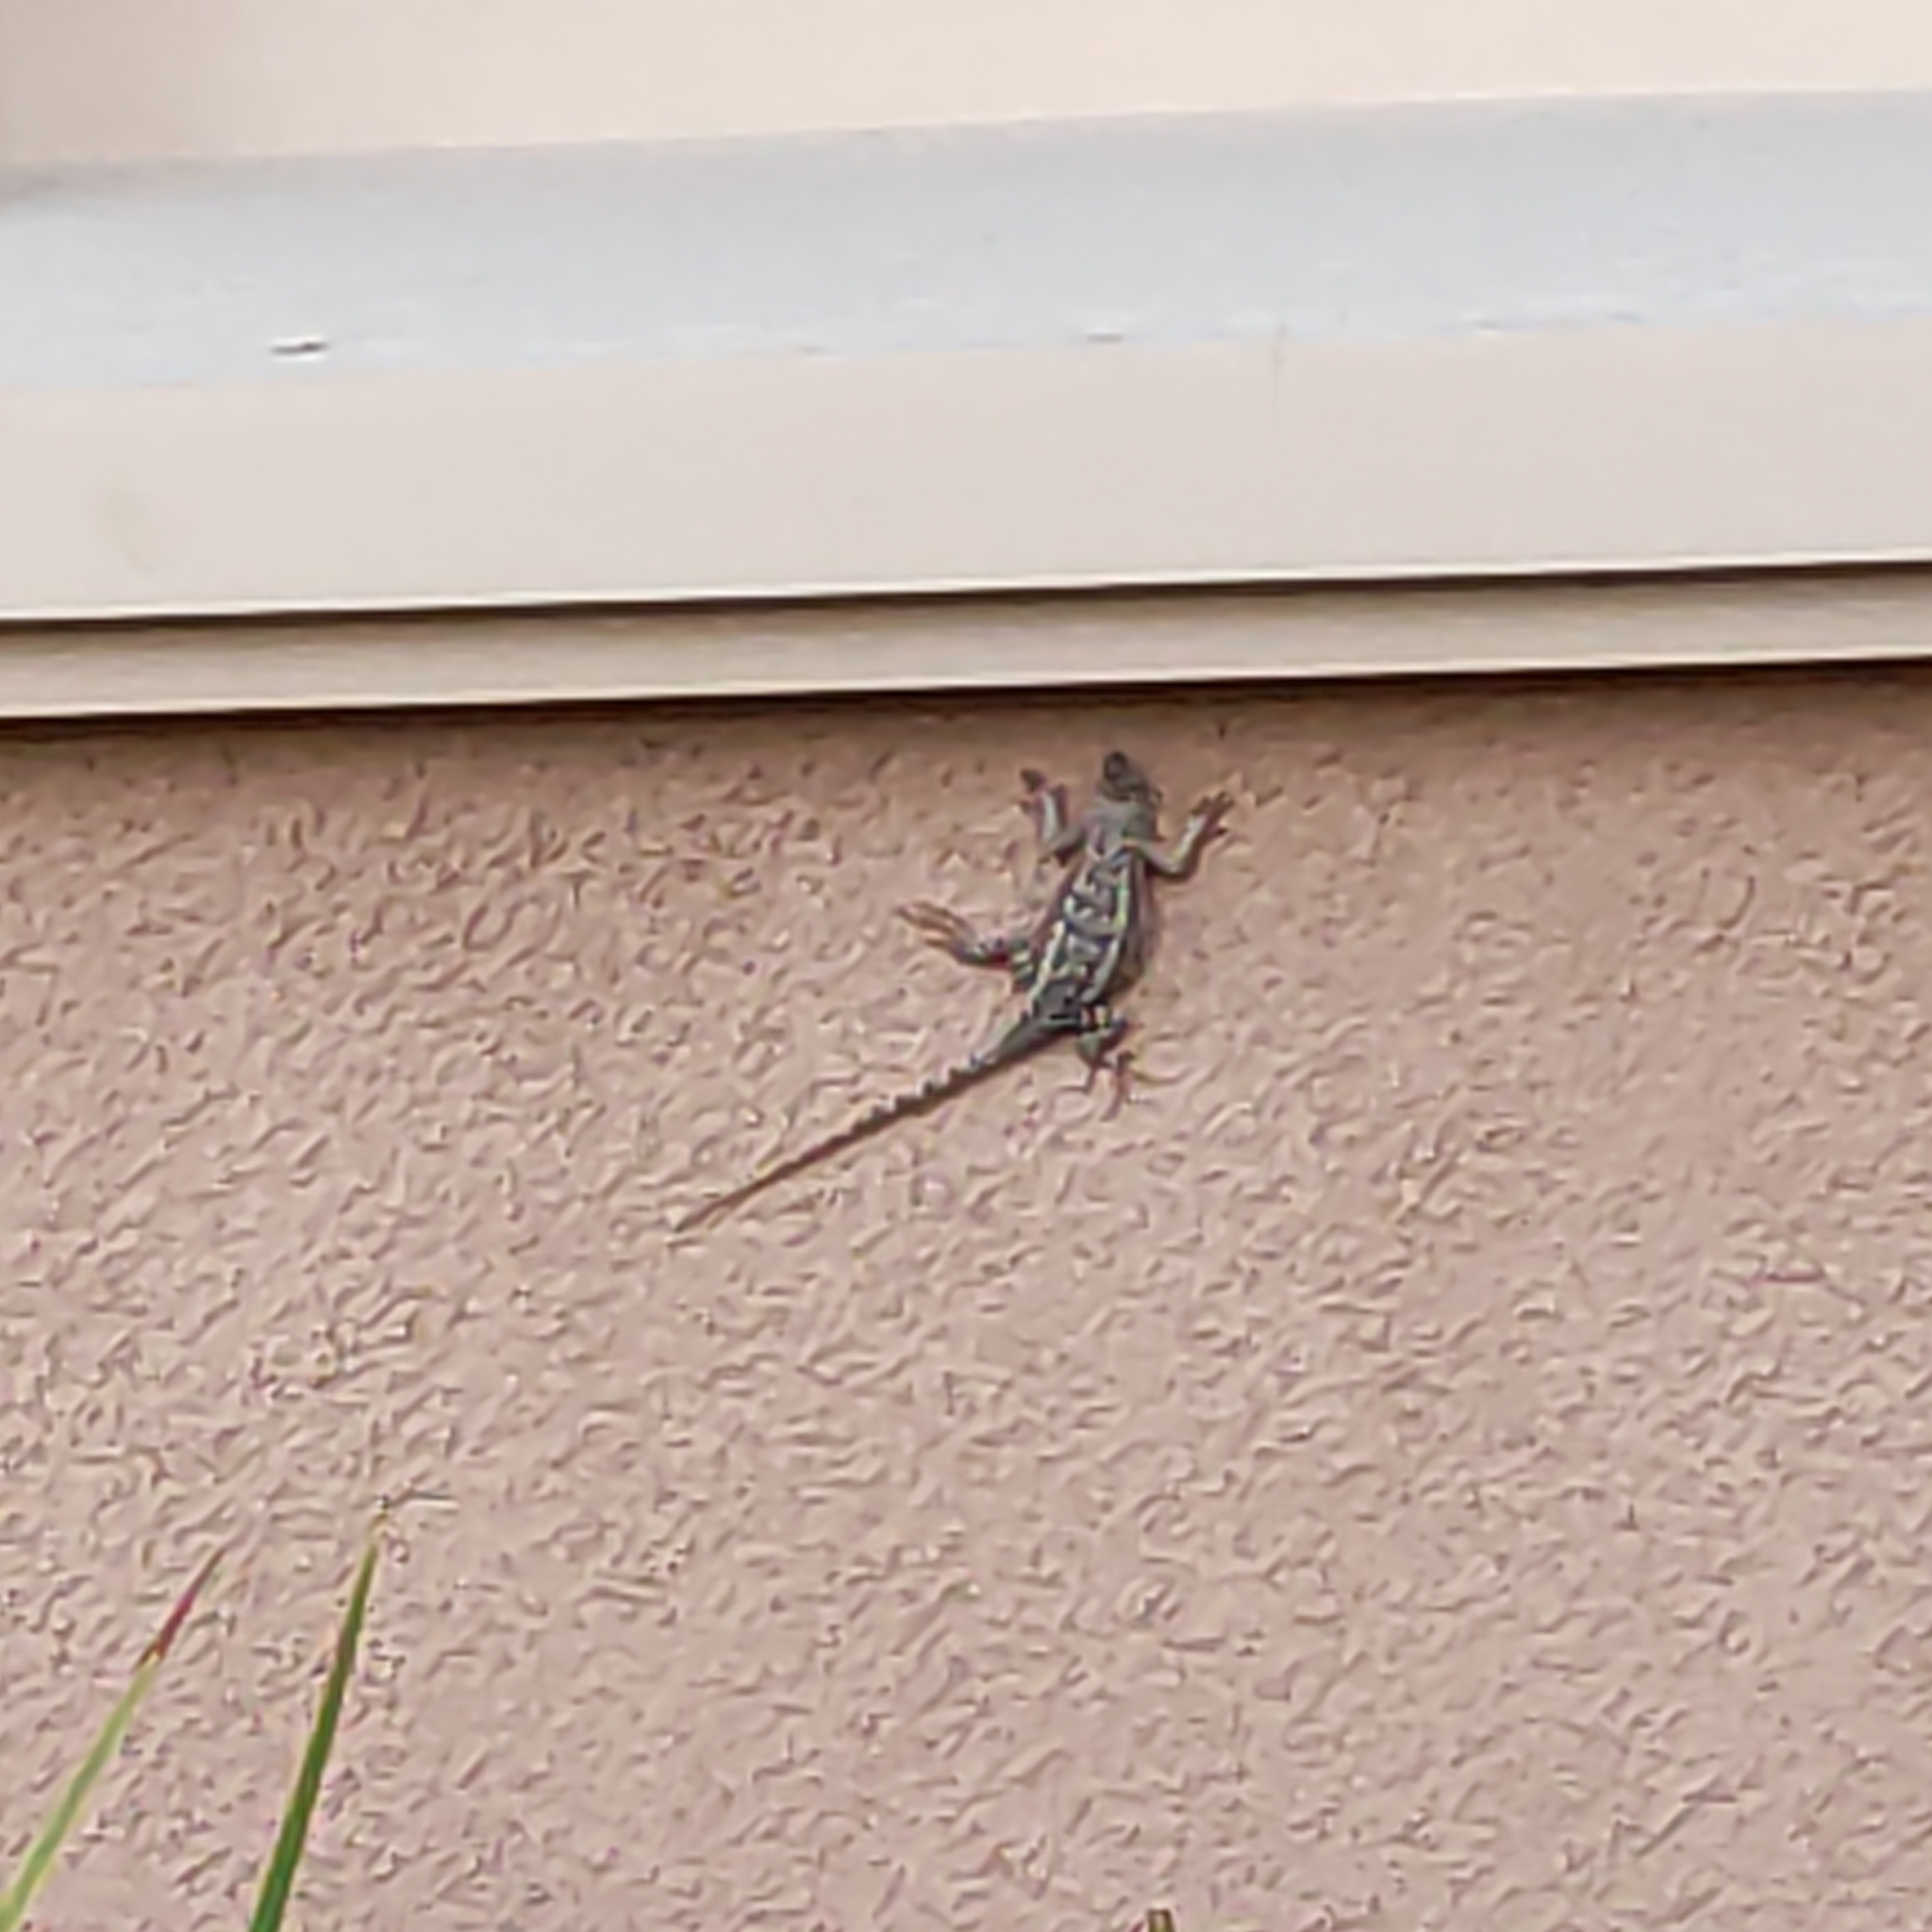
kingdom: Animalia
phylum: Chordata
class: Squamata
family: Phrynosomatidae
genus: Sceloporus
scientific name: Sceloporus occidentalis
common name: Western fence lizard
